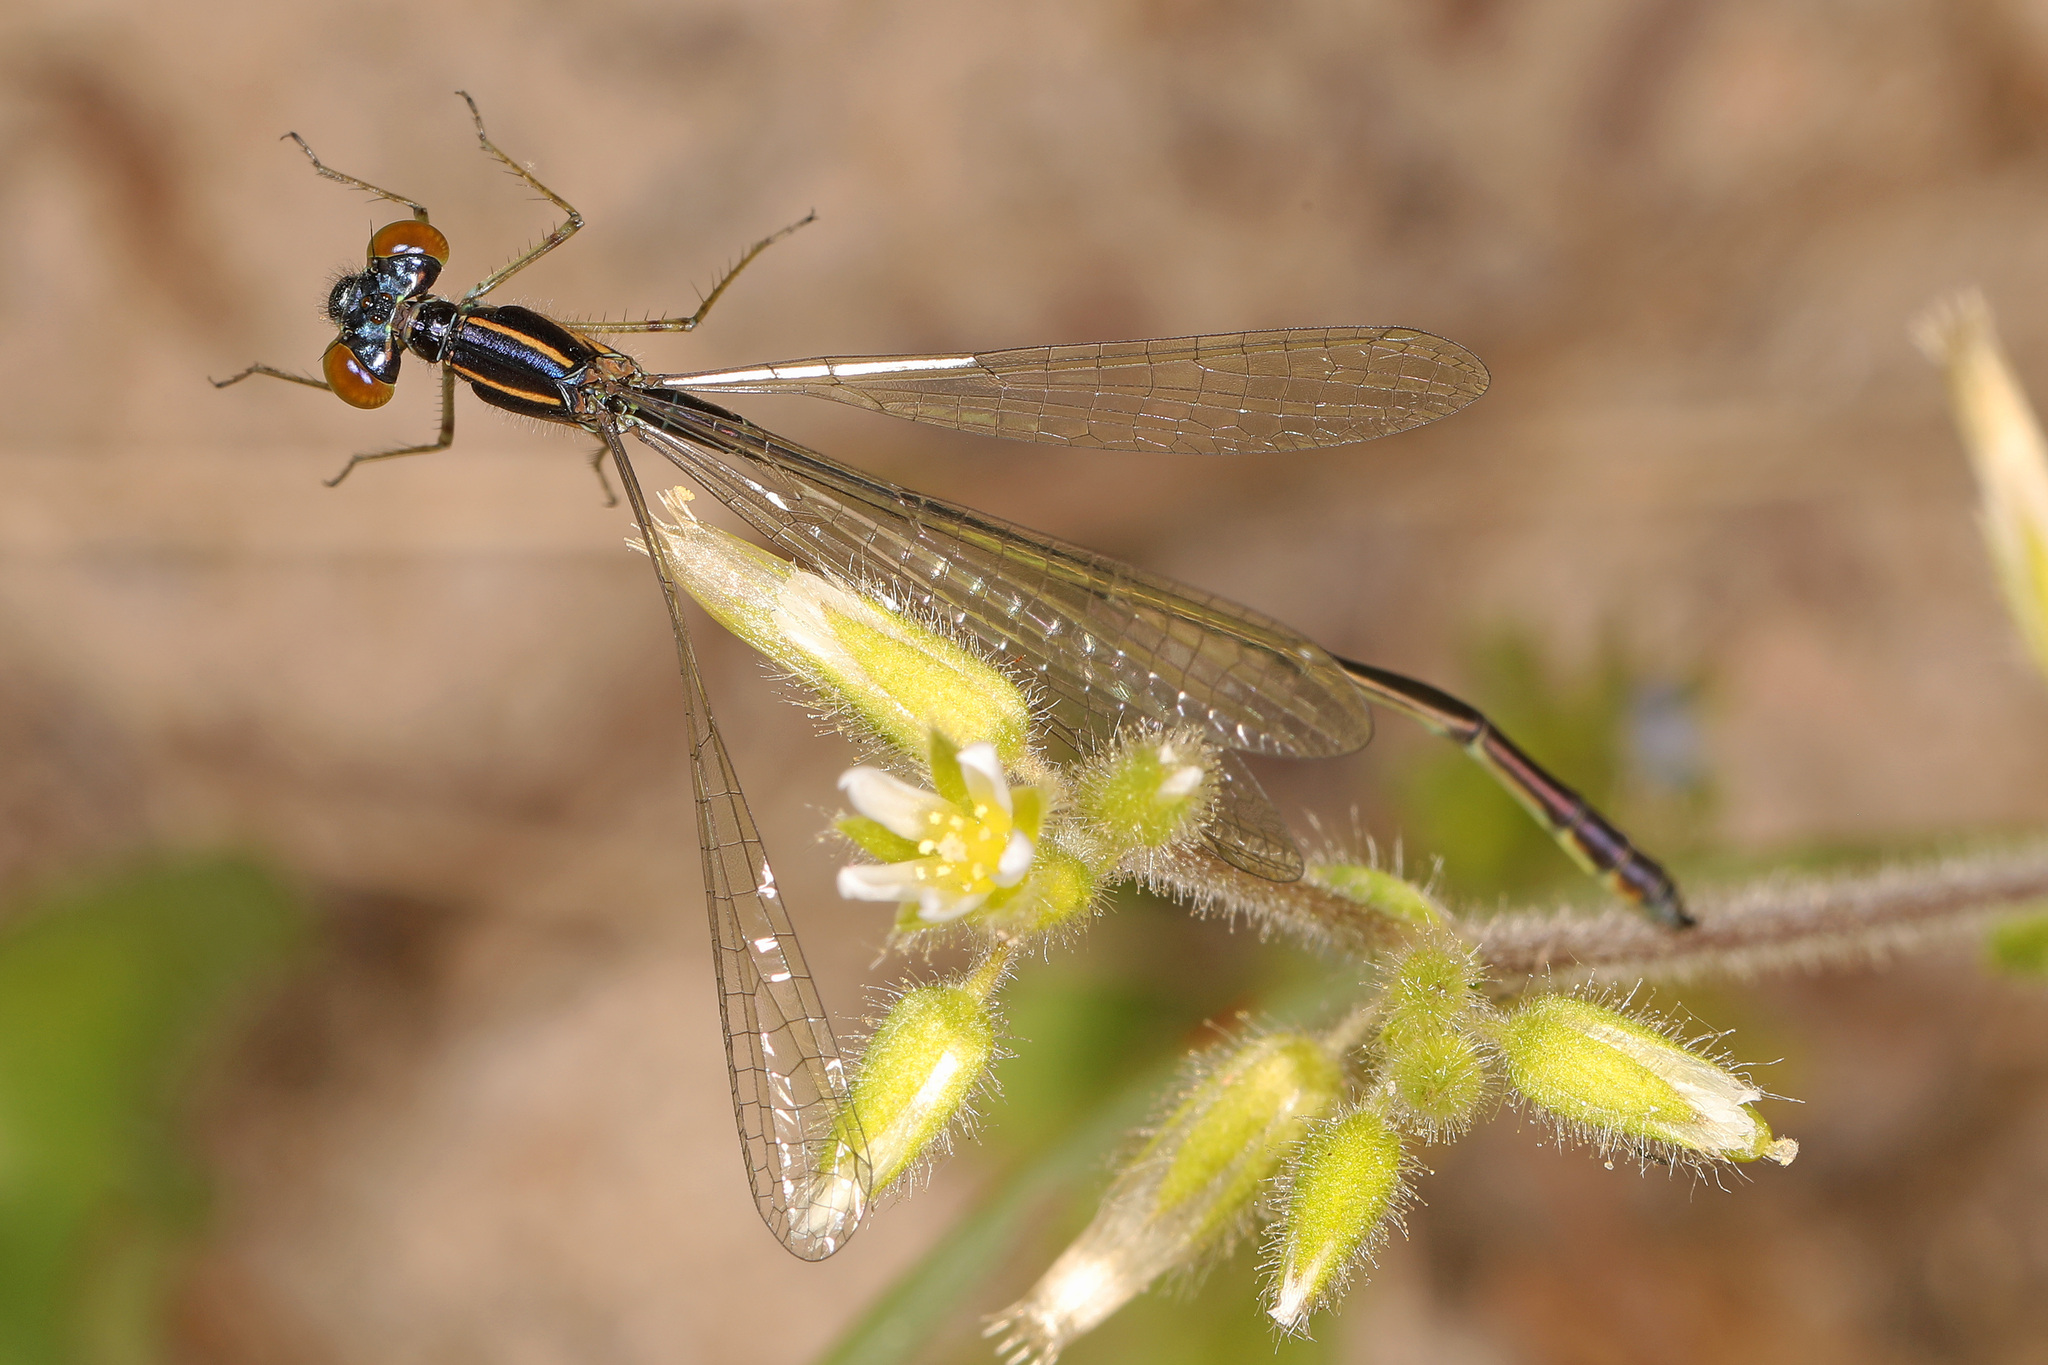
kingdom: Animalia
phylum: Arthropoda
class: Insecta
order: Odonata
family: Coenagrionidae
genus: Enallagma
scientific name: Enallagma dubium
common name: Burgundy bluet
